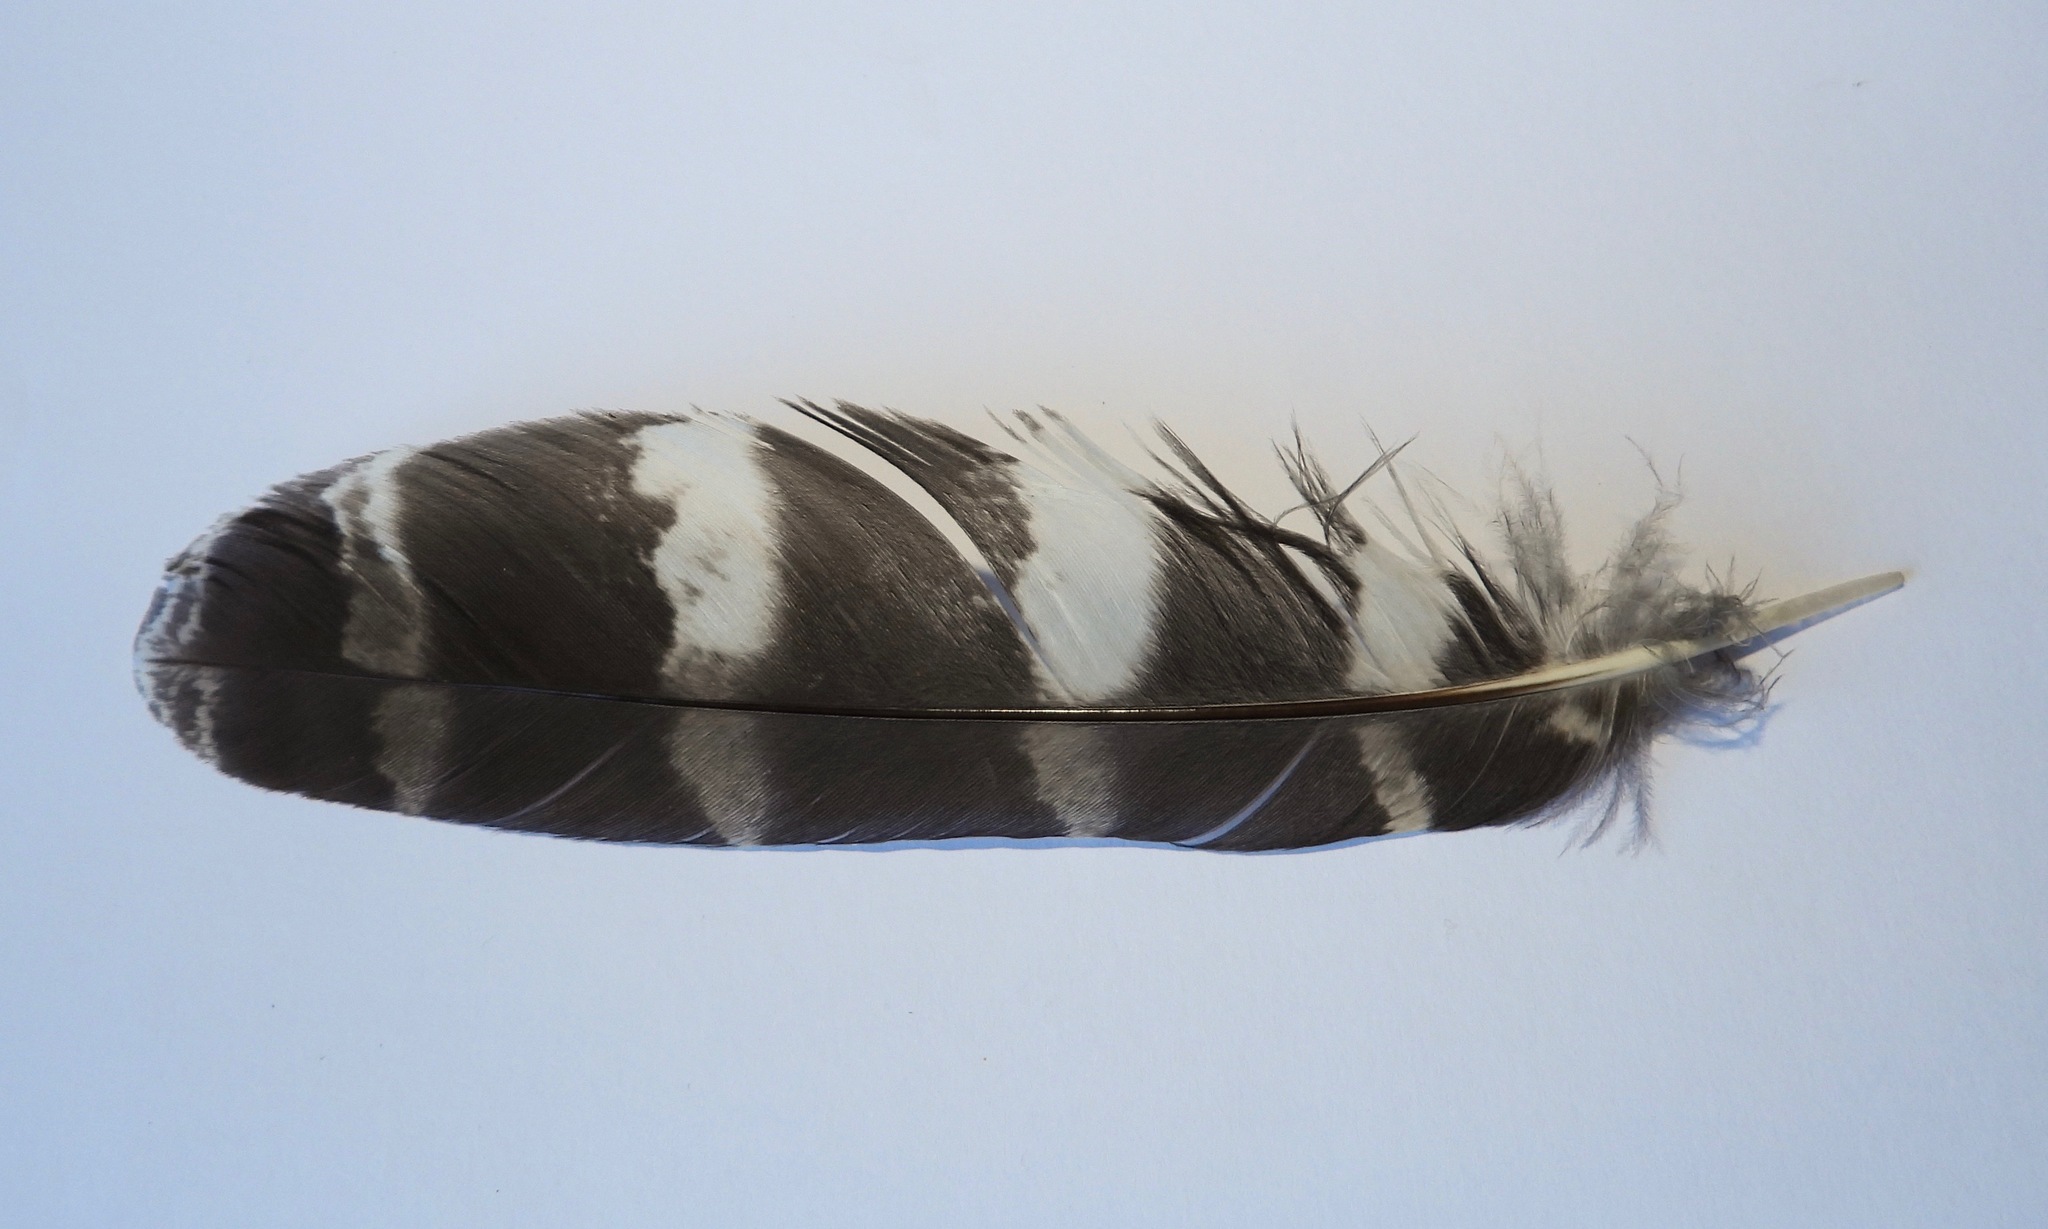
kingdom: Animalia
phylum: Chordata
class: Aves
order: Strigiformes
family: Strigidae
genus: Strix
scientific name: Strix virgata
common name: Mottled owl
